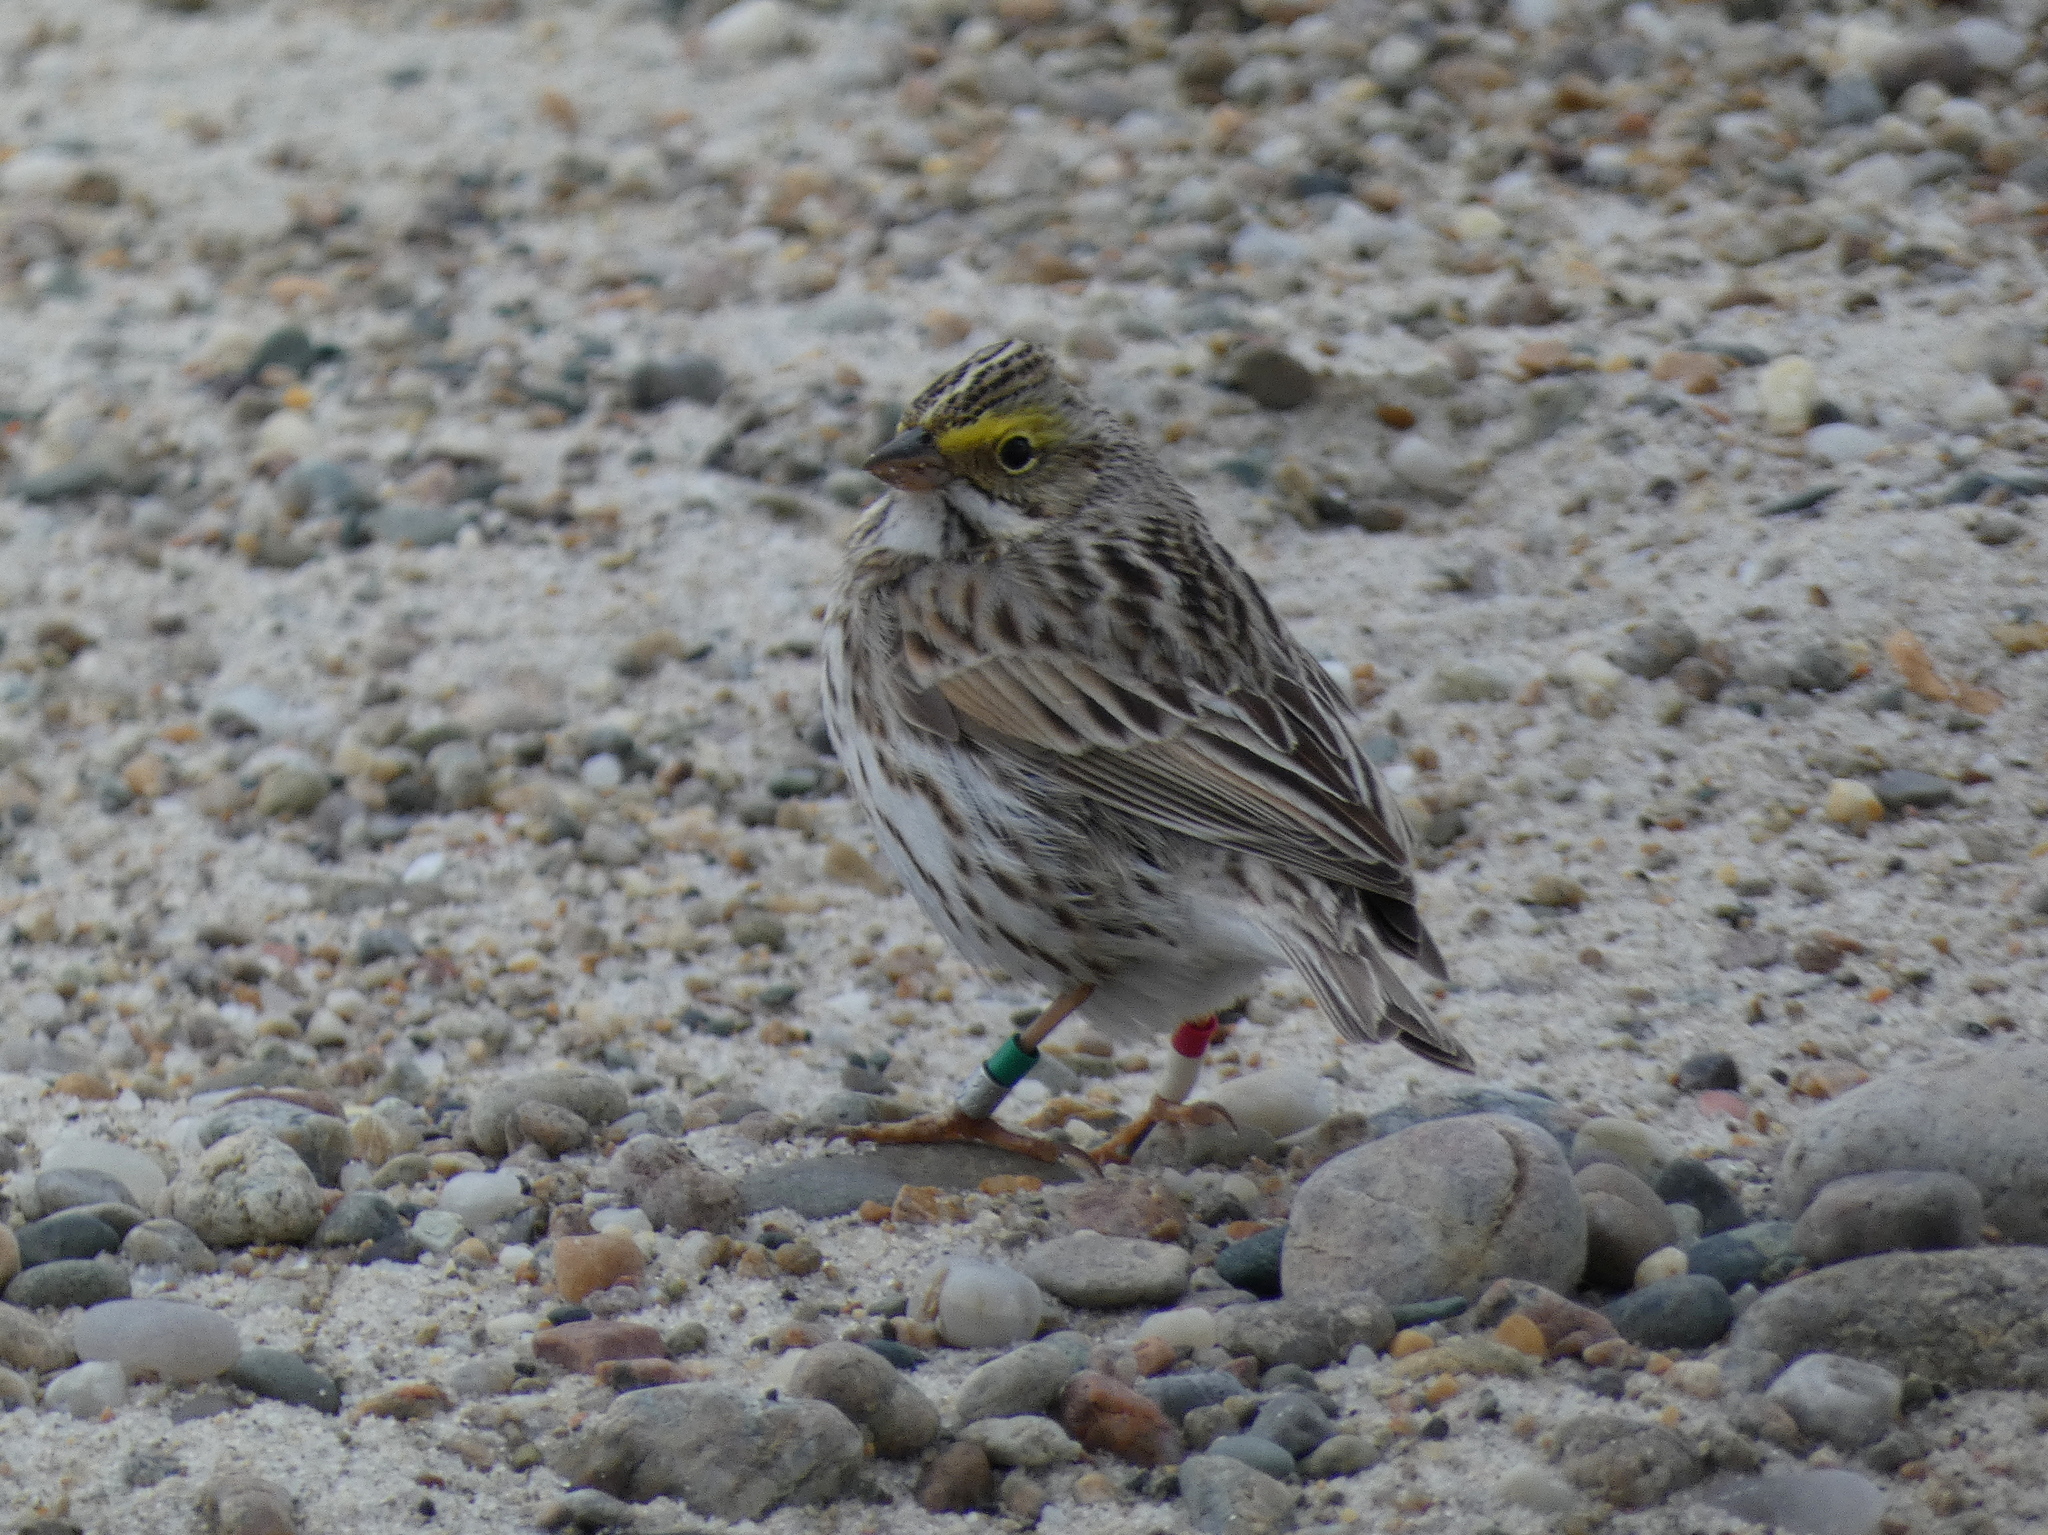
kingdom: Animalia
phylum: Chordata
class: Aves
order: Passeriformes
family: Passerellidae
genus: Passerculus
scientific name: Passerculus sandwichensis
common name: Savannah sparrow
